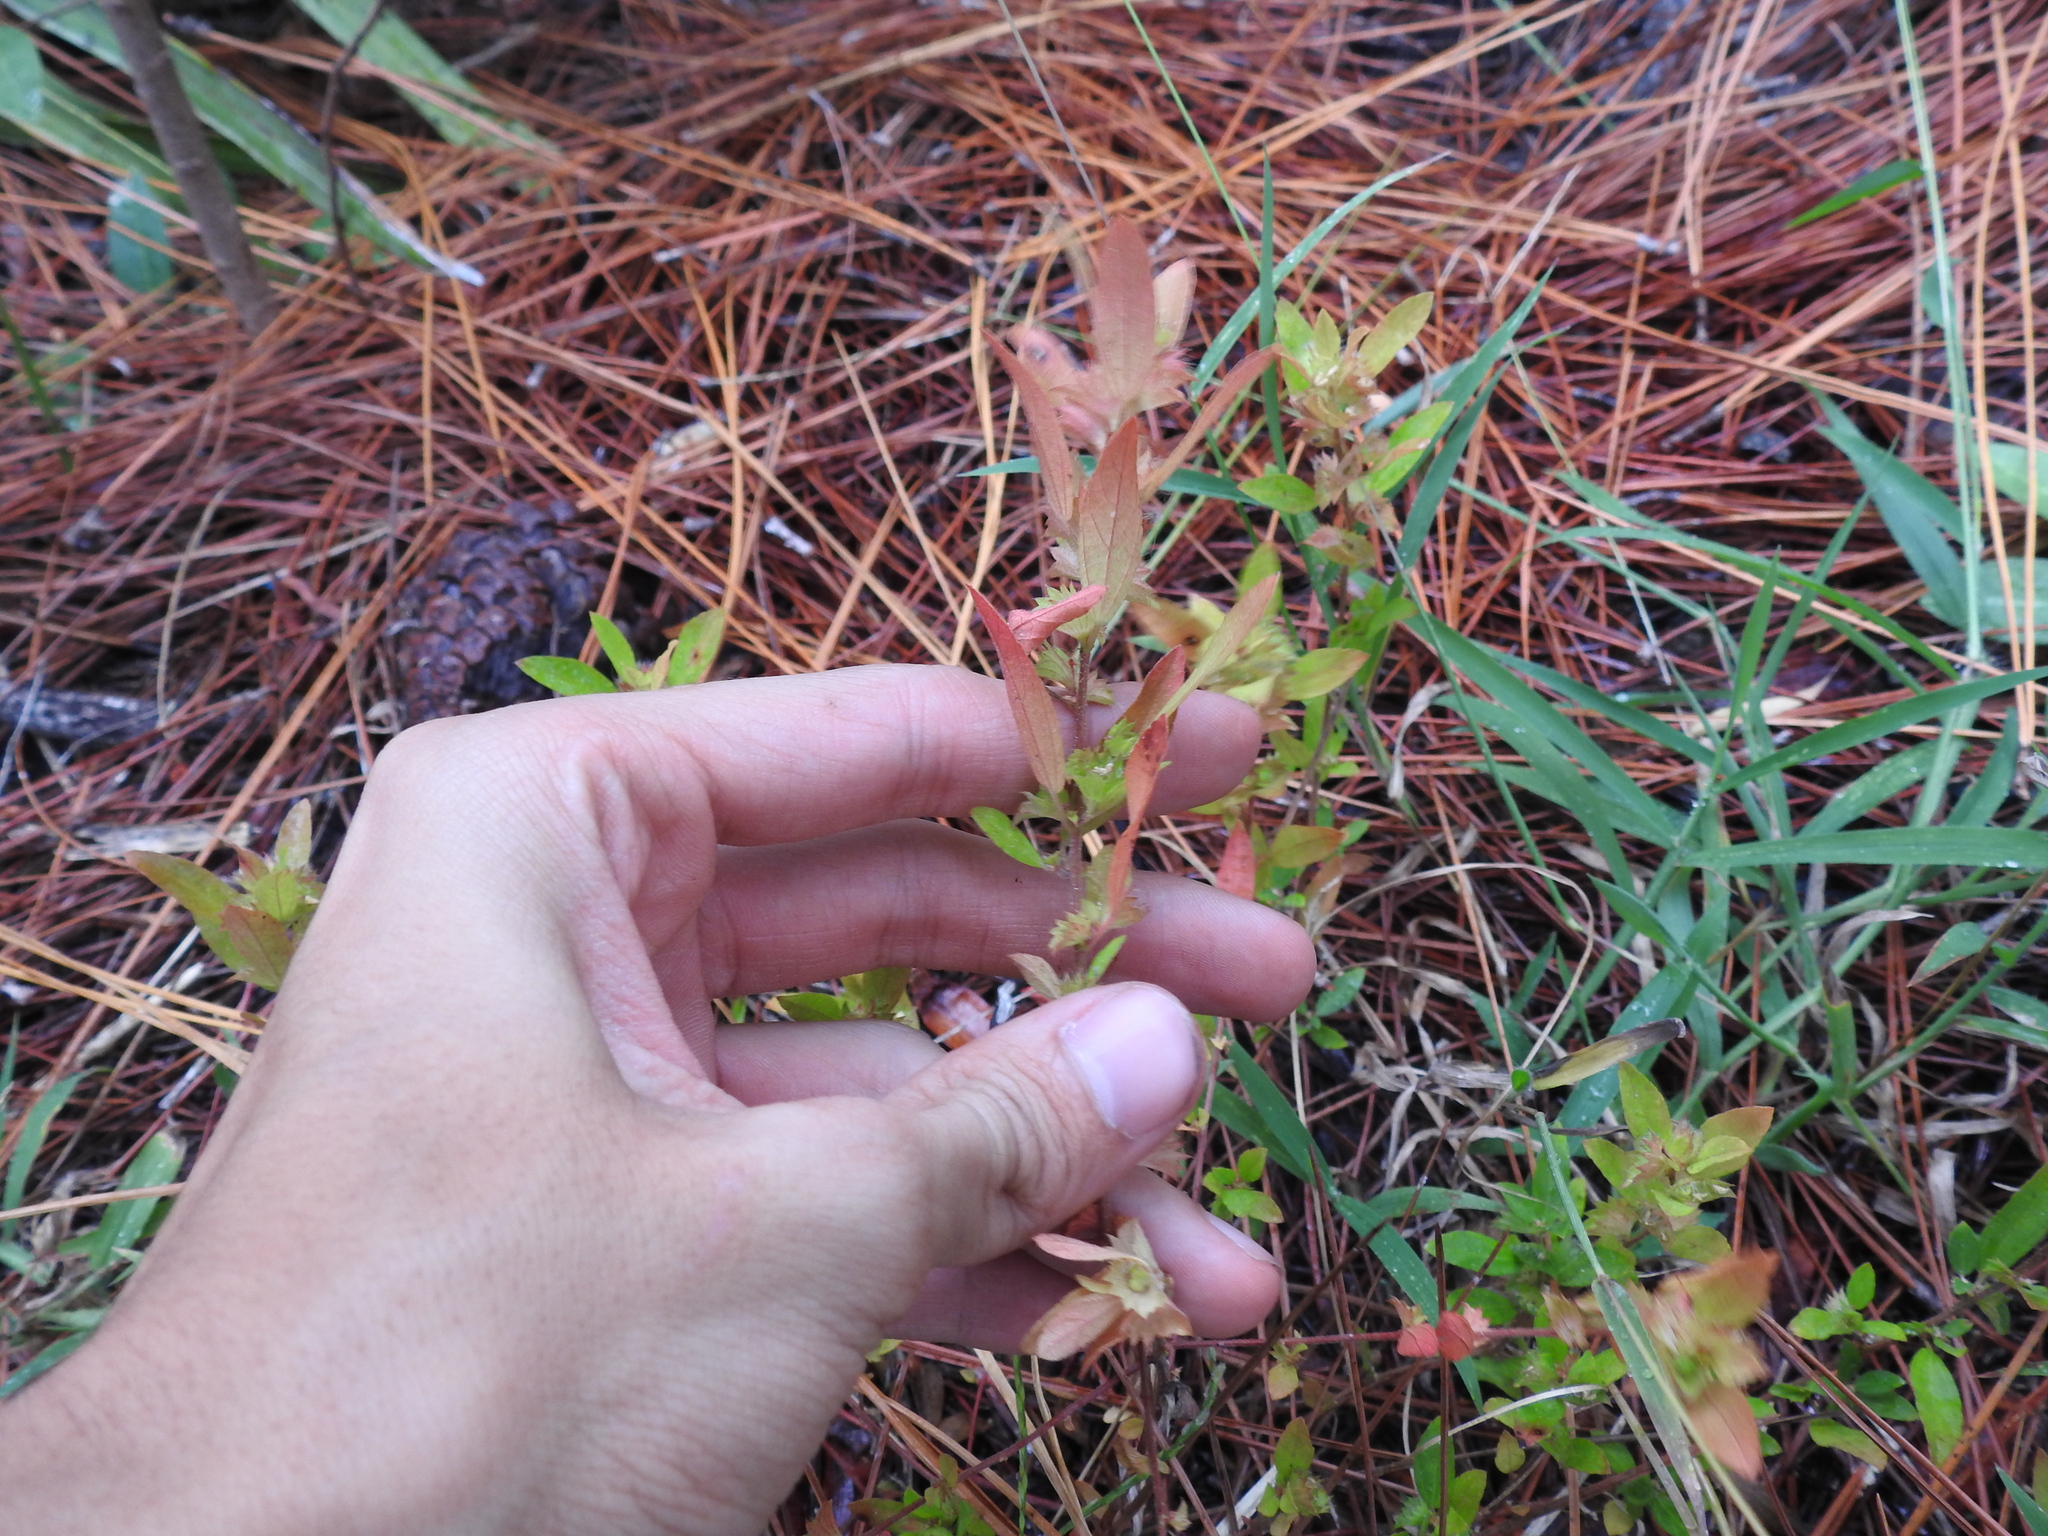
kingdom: Plantae
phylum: Tracheophyta
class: Magnoliopsida
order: Malpighiales
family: Euphorbiaceae
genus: Acalypha
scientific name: Acalypha gracilens
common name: Slender three-seeded mercury
